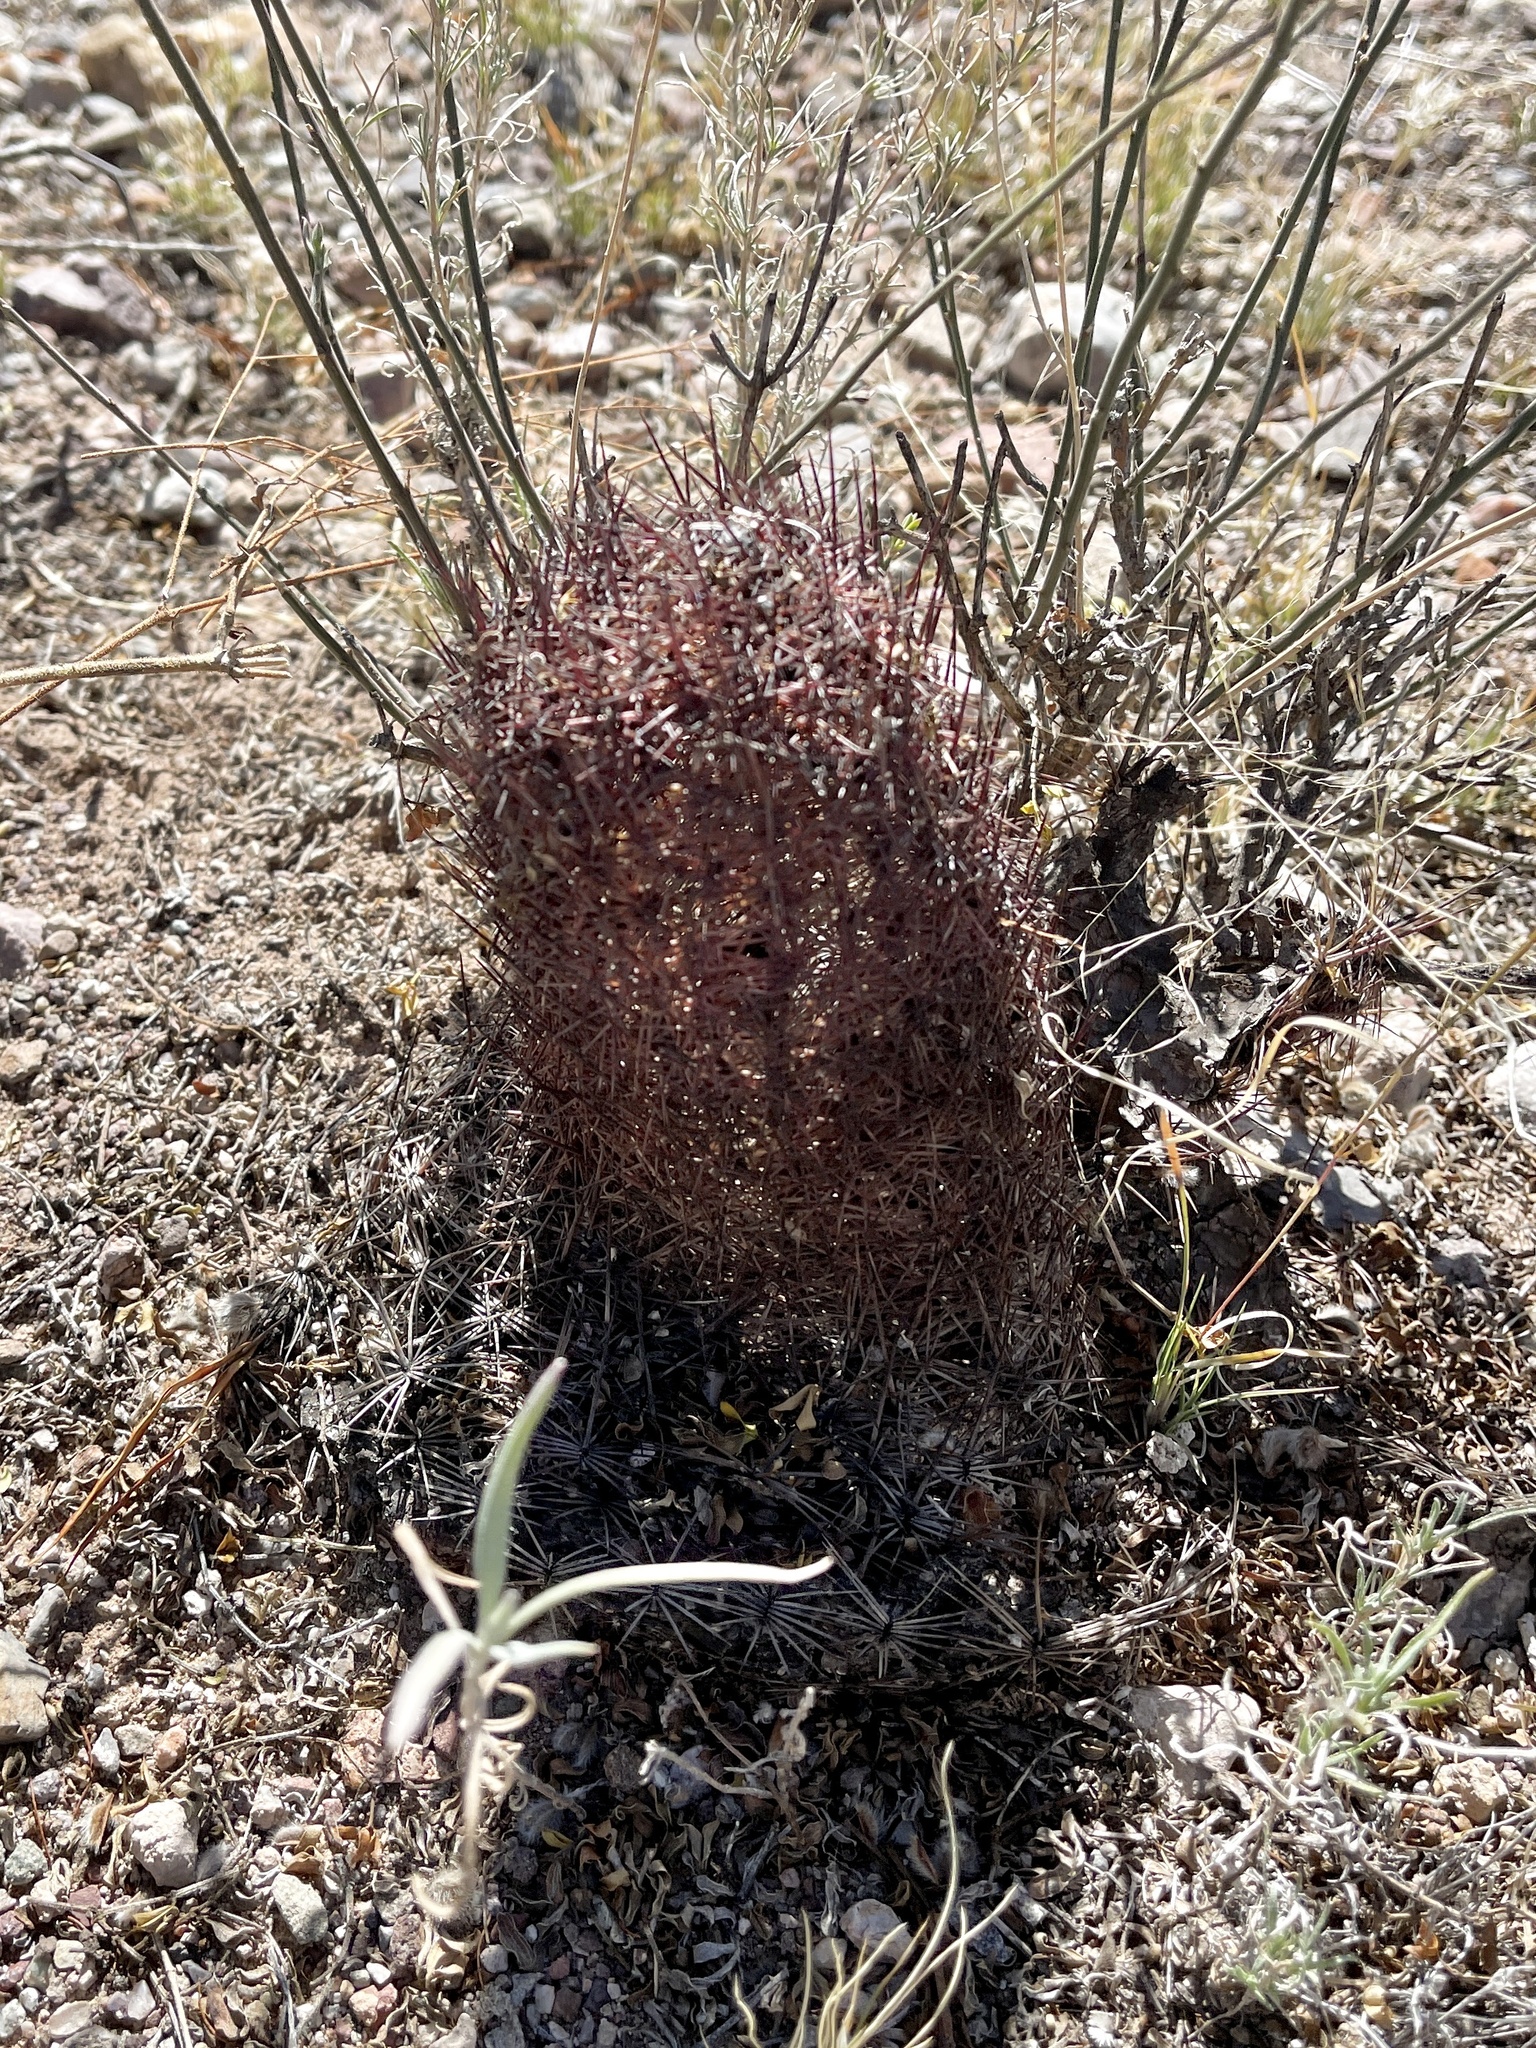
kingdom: Plantae
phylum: Tracheophyta
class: Magnoliopsida
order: Caryophyllales
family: Cactaceae
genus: Sclerocactus
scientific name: Sclerocactus johnsonii
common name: Eight-spine fishhook cactus
